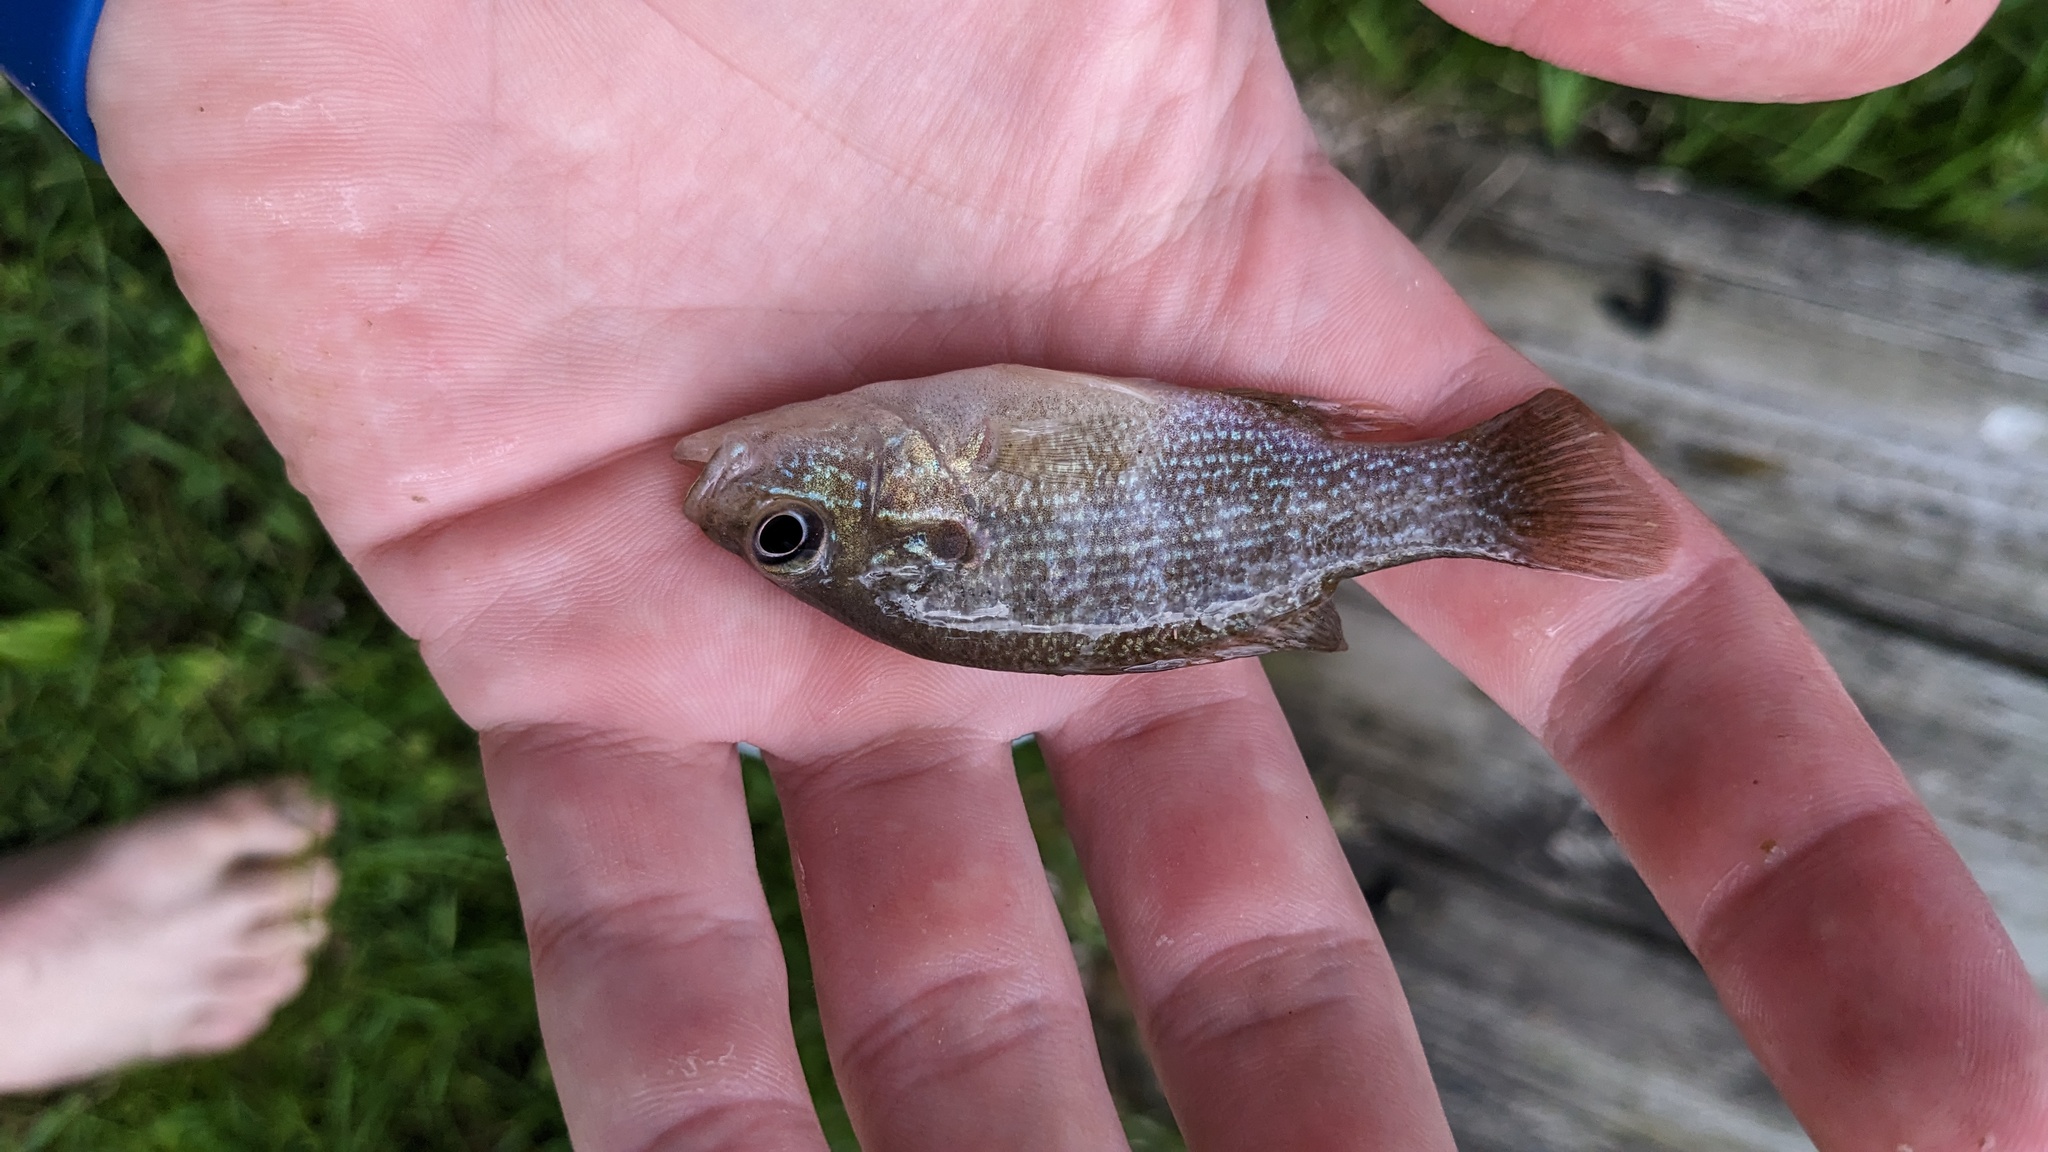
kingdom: Animalia
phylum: Chordata
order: Perciformes
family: Centrarchidae
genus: Lepomis
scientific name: Lepomis cyanellus
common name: Green sunfish
